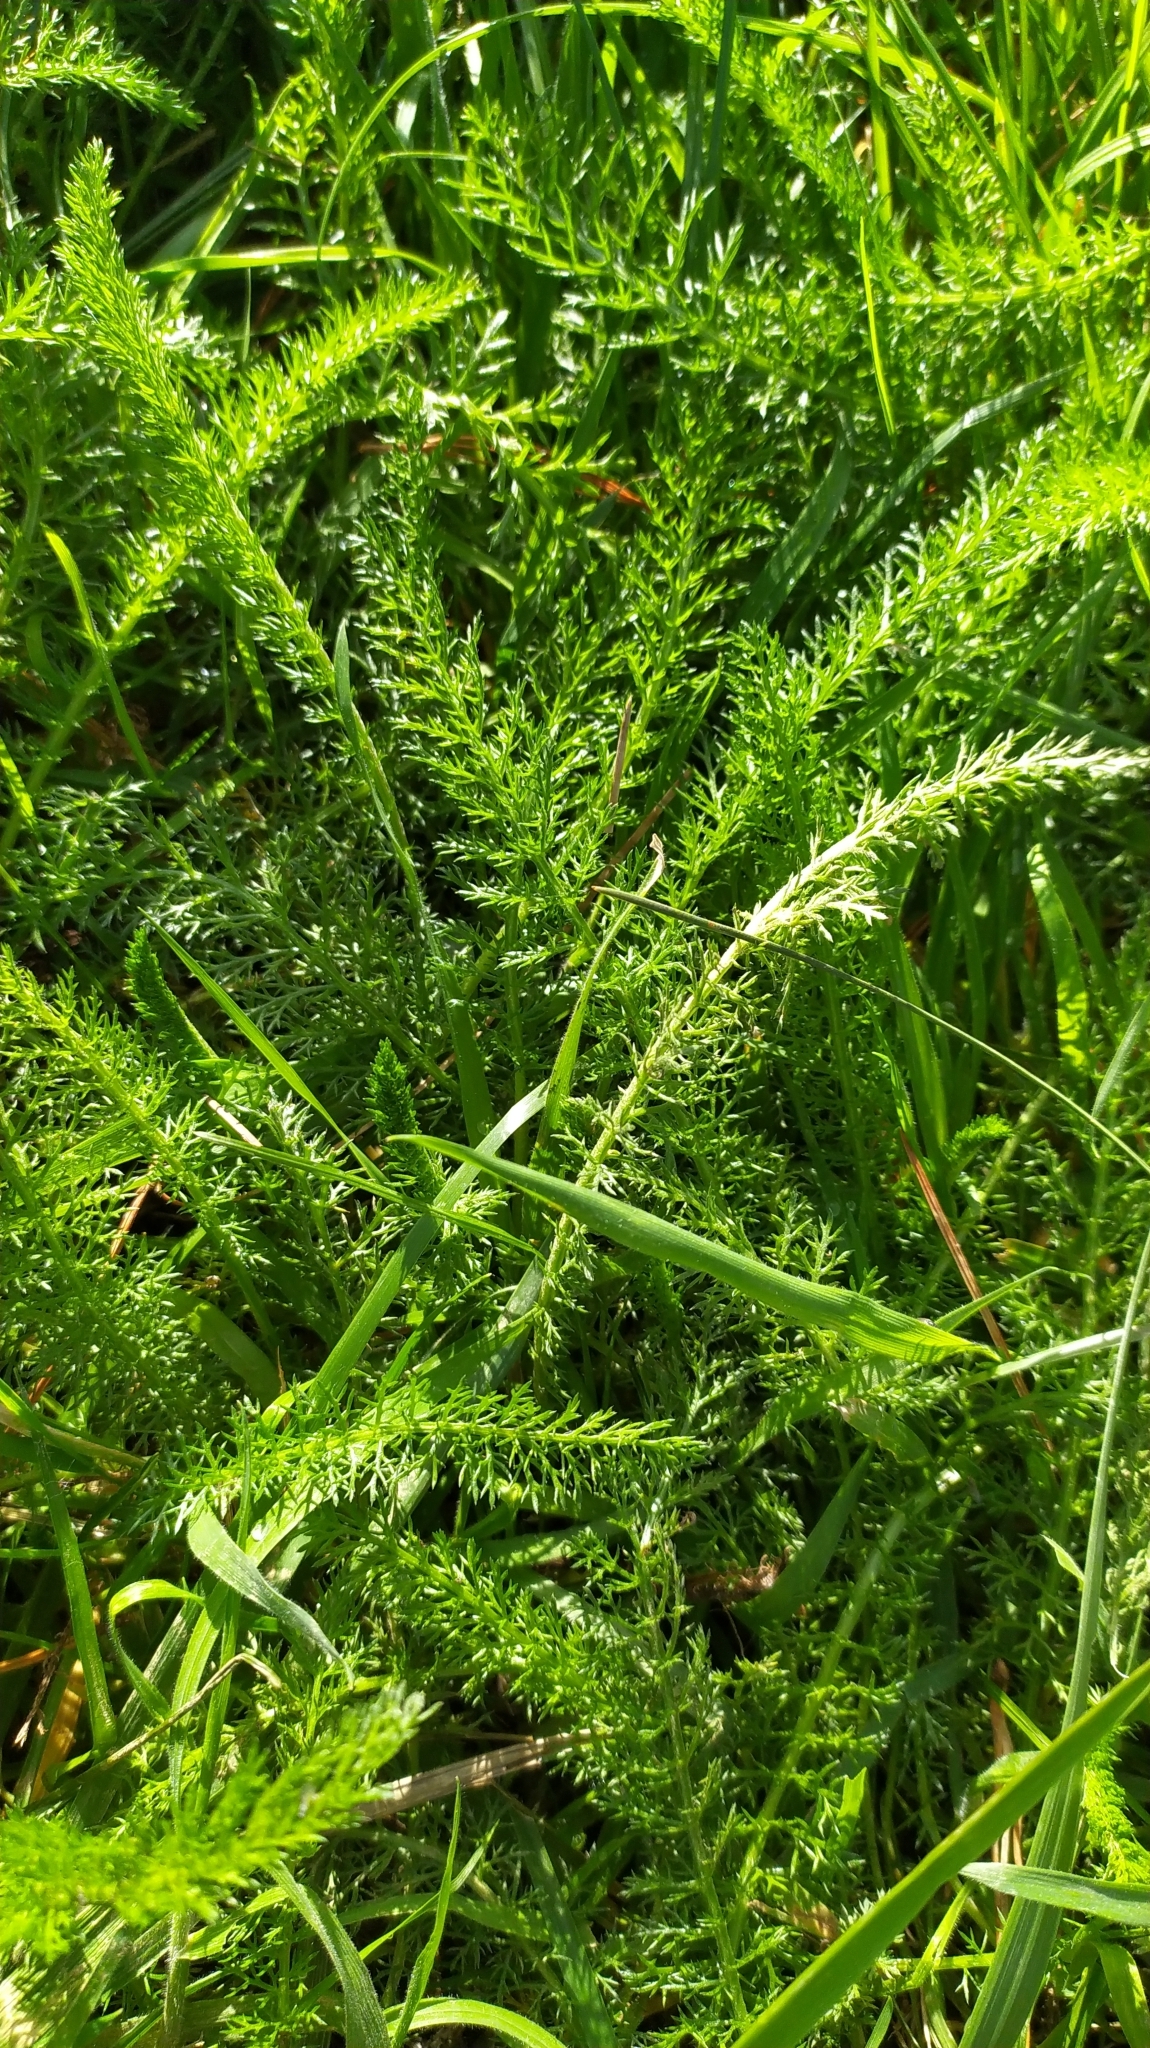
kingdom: Plantae
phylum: Tracheophyta
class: Magnoliopsida
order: Asterales
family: Asteraceae
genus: Achillea
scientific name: Achillea millefolium
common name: Yarrow
